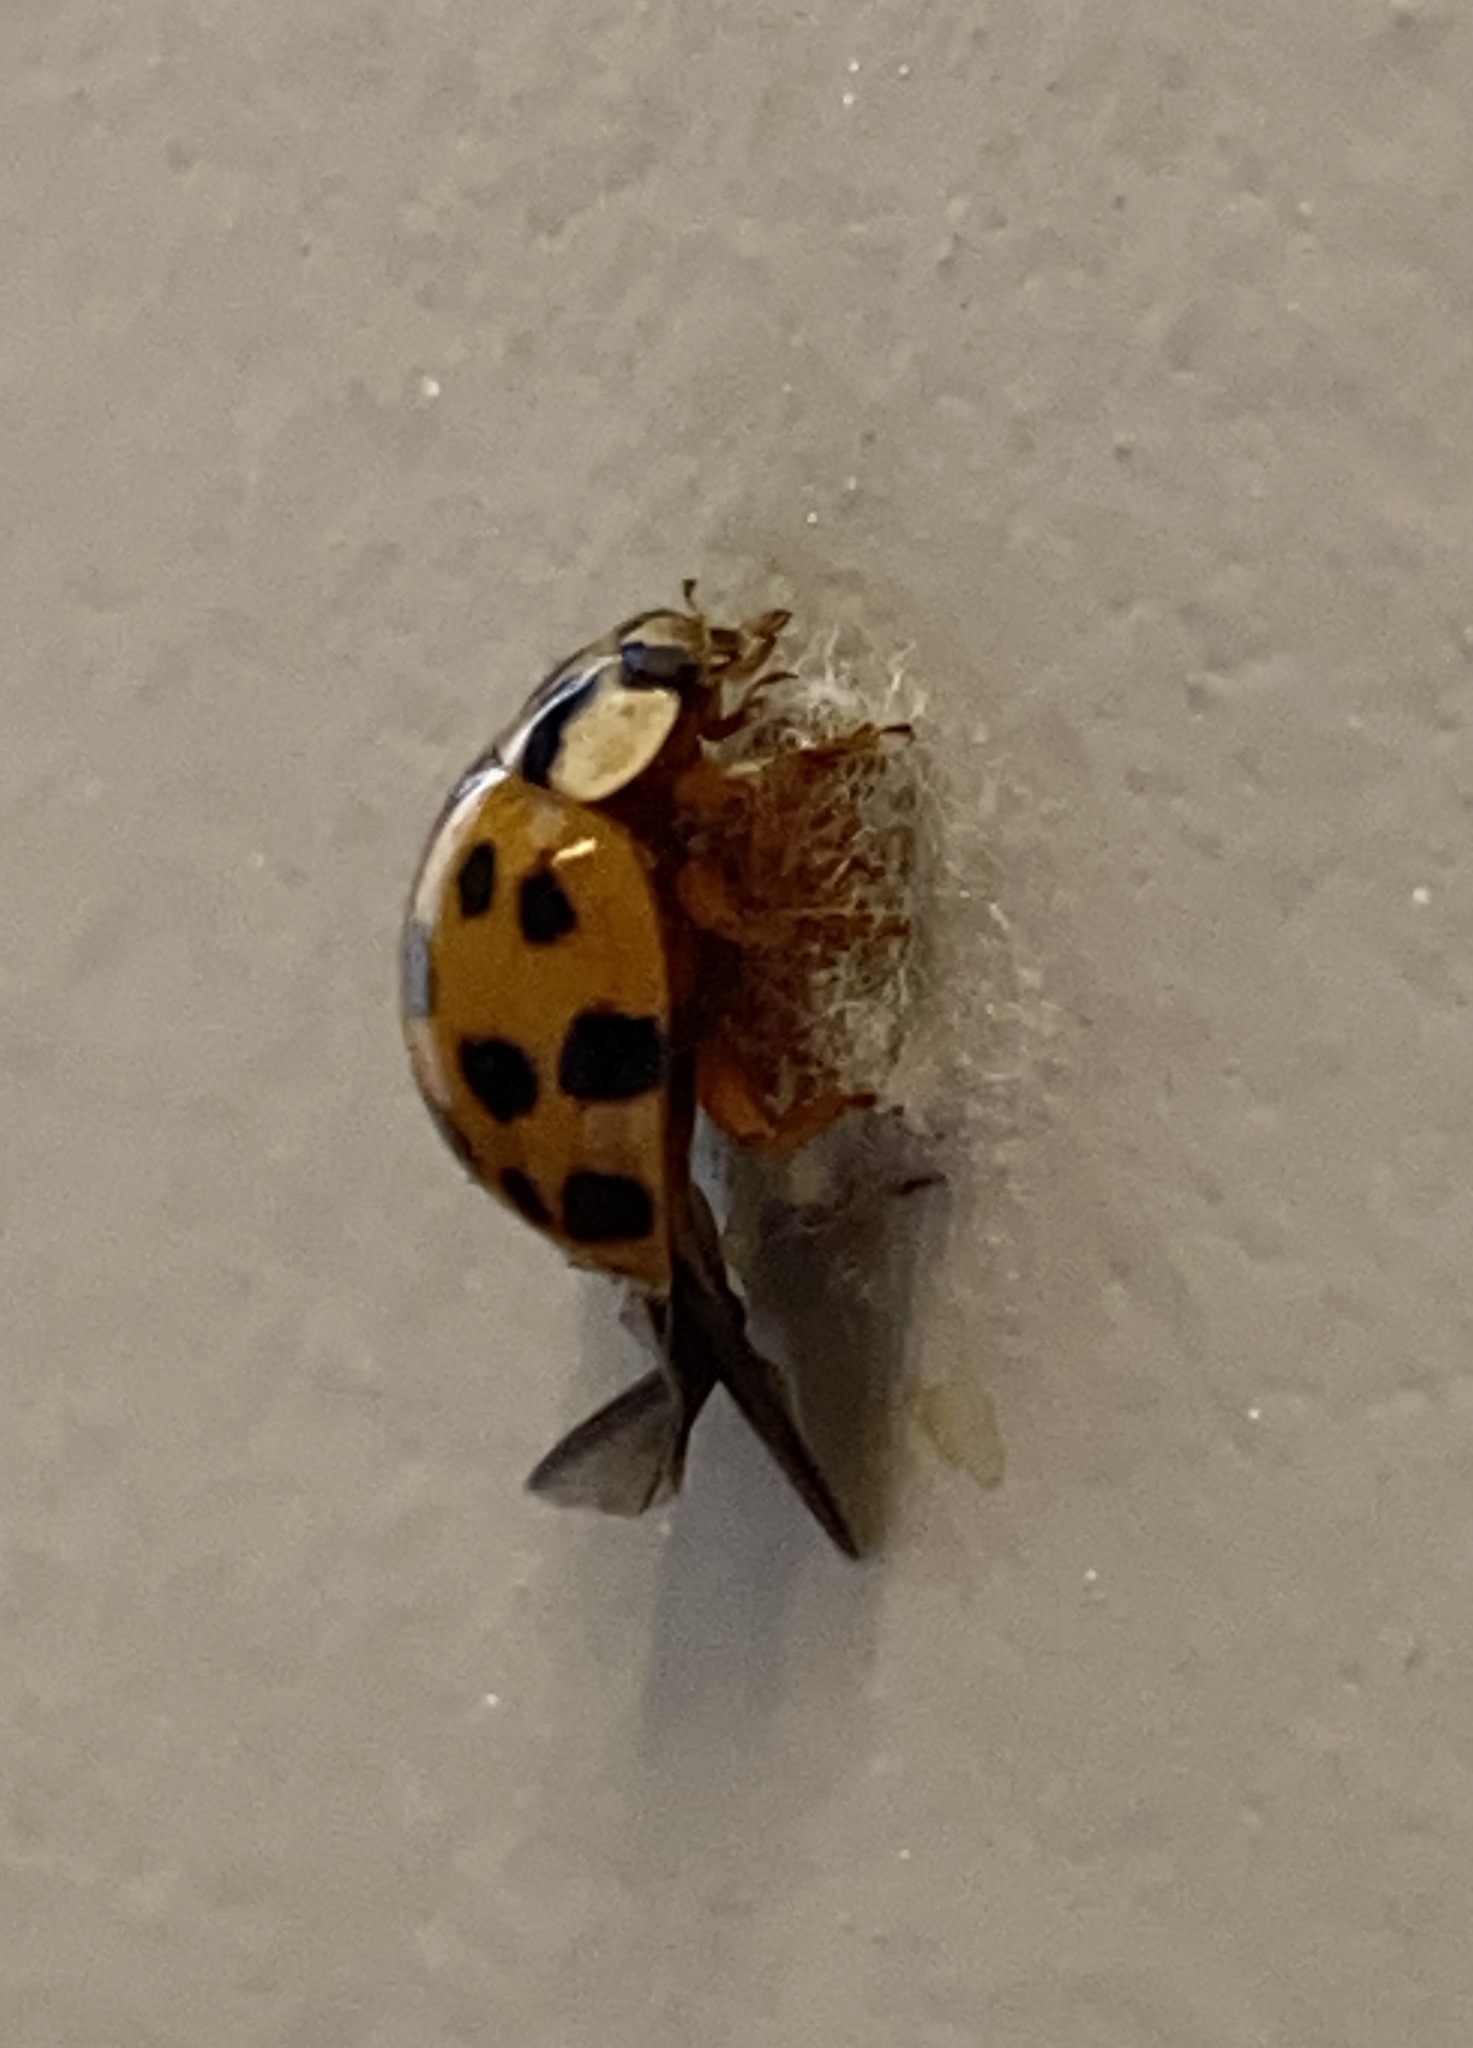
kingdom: Animalia
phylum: Arthropoda
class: Insecta
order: Hymenoptera
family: Braconidae
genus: Dinocampus
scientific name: Dinocampus coccinellae
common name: Braconid wasp
